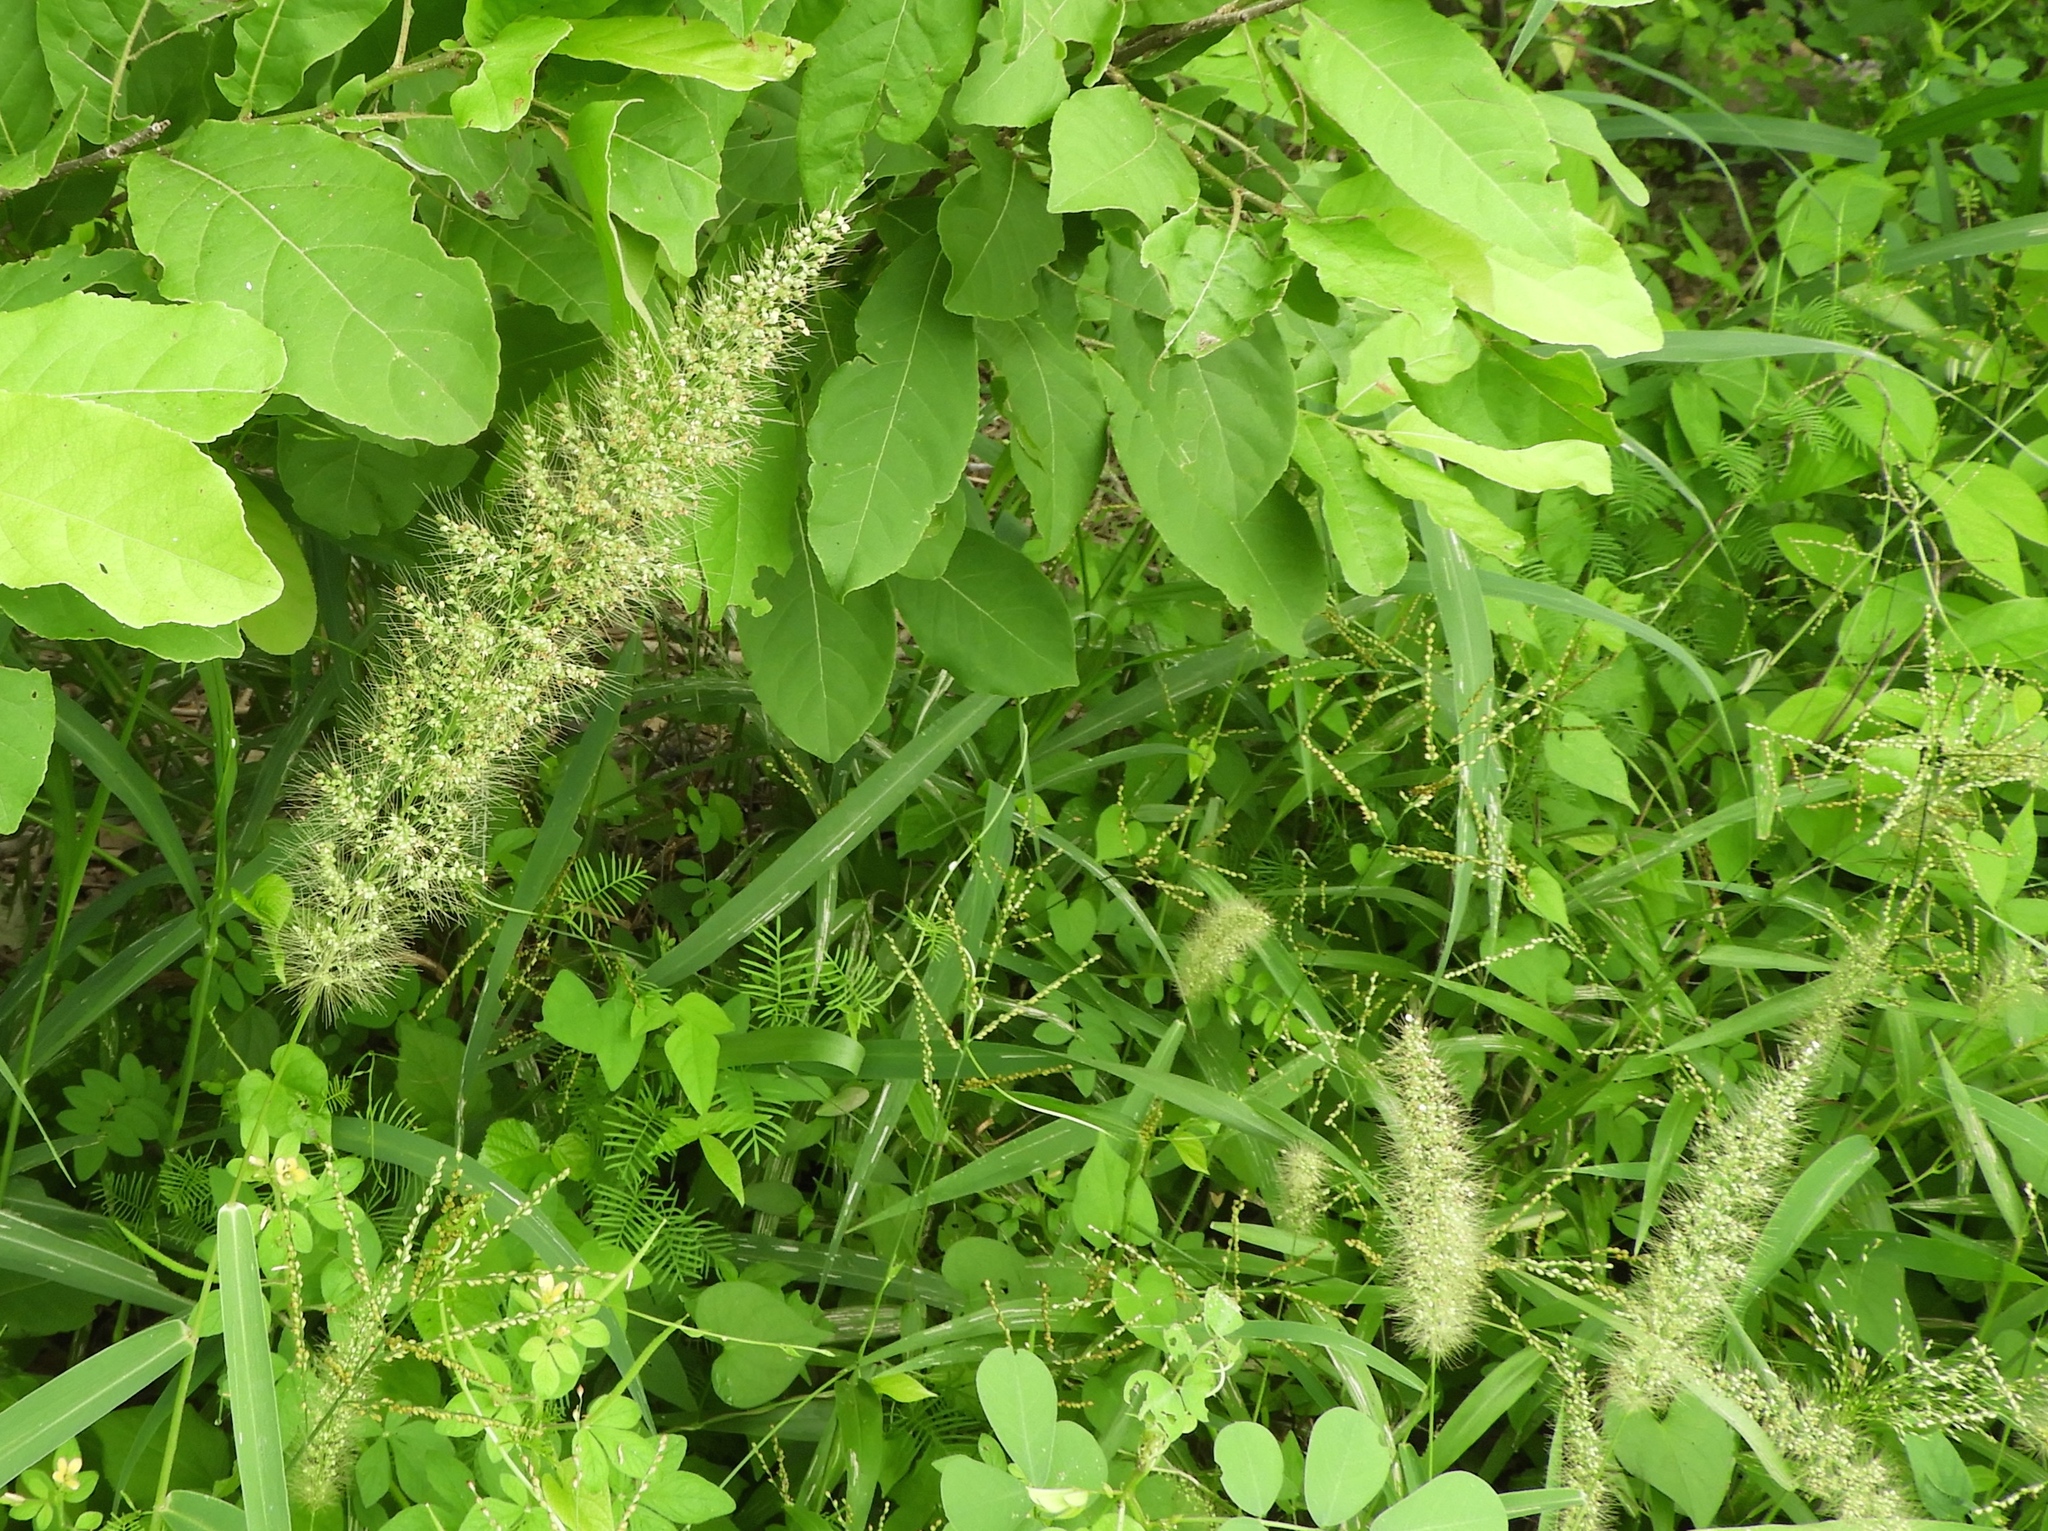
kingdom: Plantae
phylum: Tracheophyta
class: Liliopsida
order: Poales
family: Poaceae
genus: Setaria
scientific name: Setaria liebmannii
